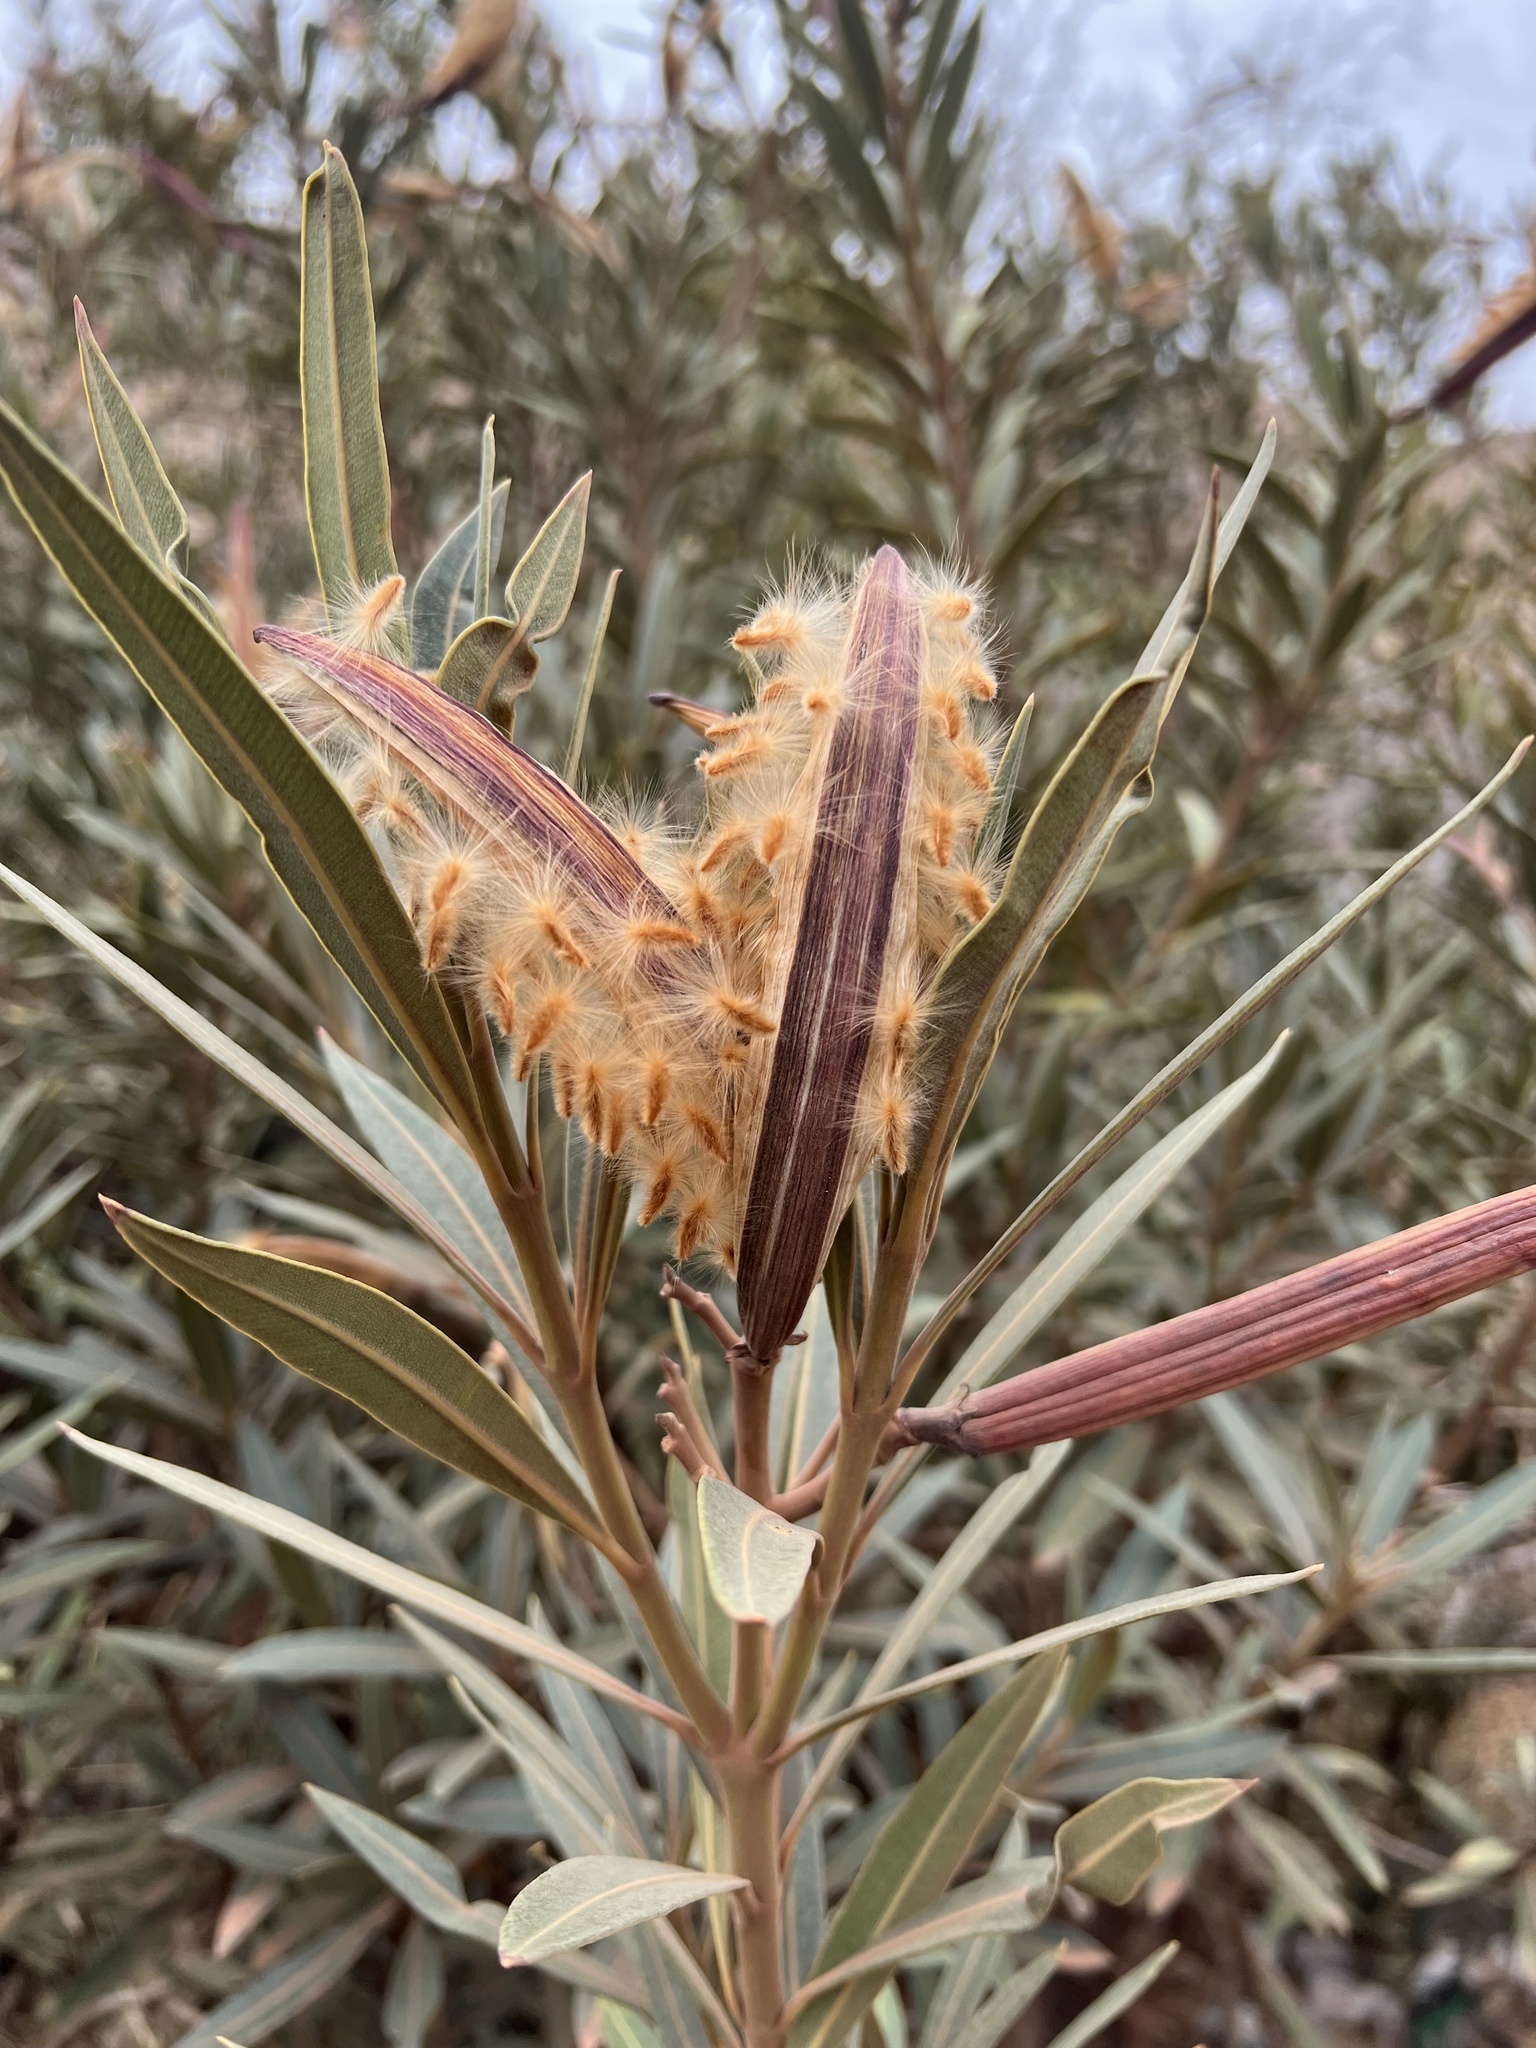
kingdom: Plantae
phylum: Tracheophyta
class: Magnoliopsida
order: Gentianales
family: Apocynaceae
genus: Nerium
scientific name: Nerium oleander
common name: Oleander
